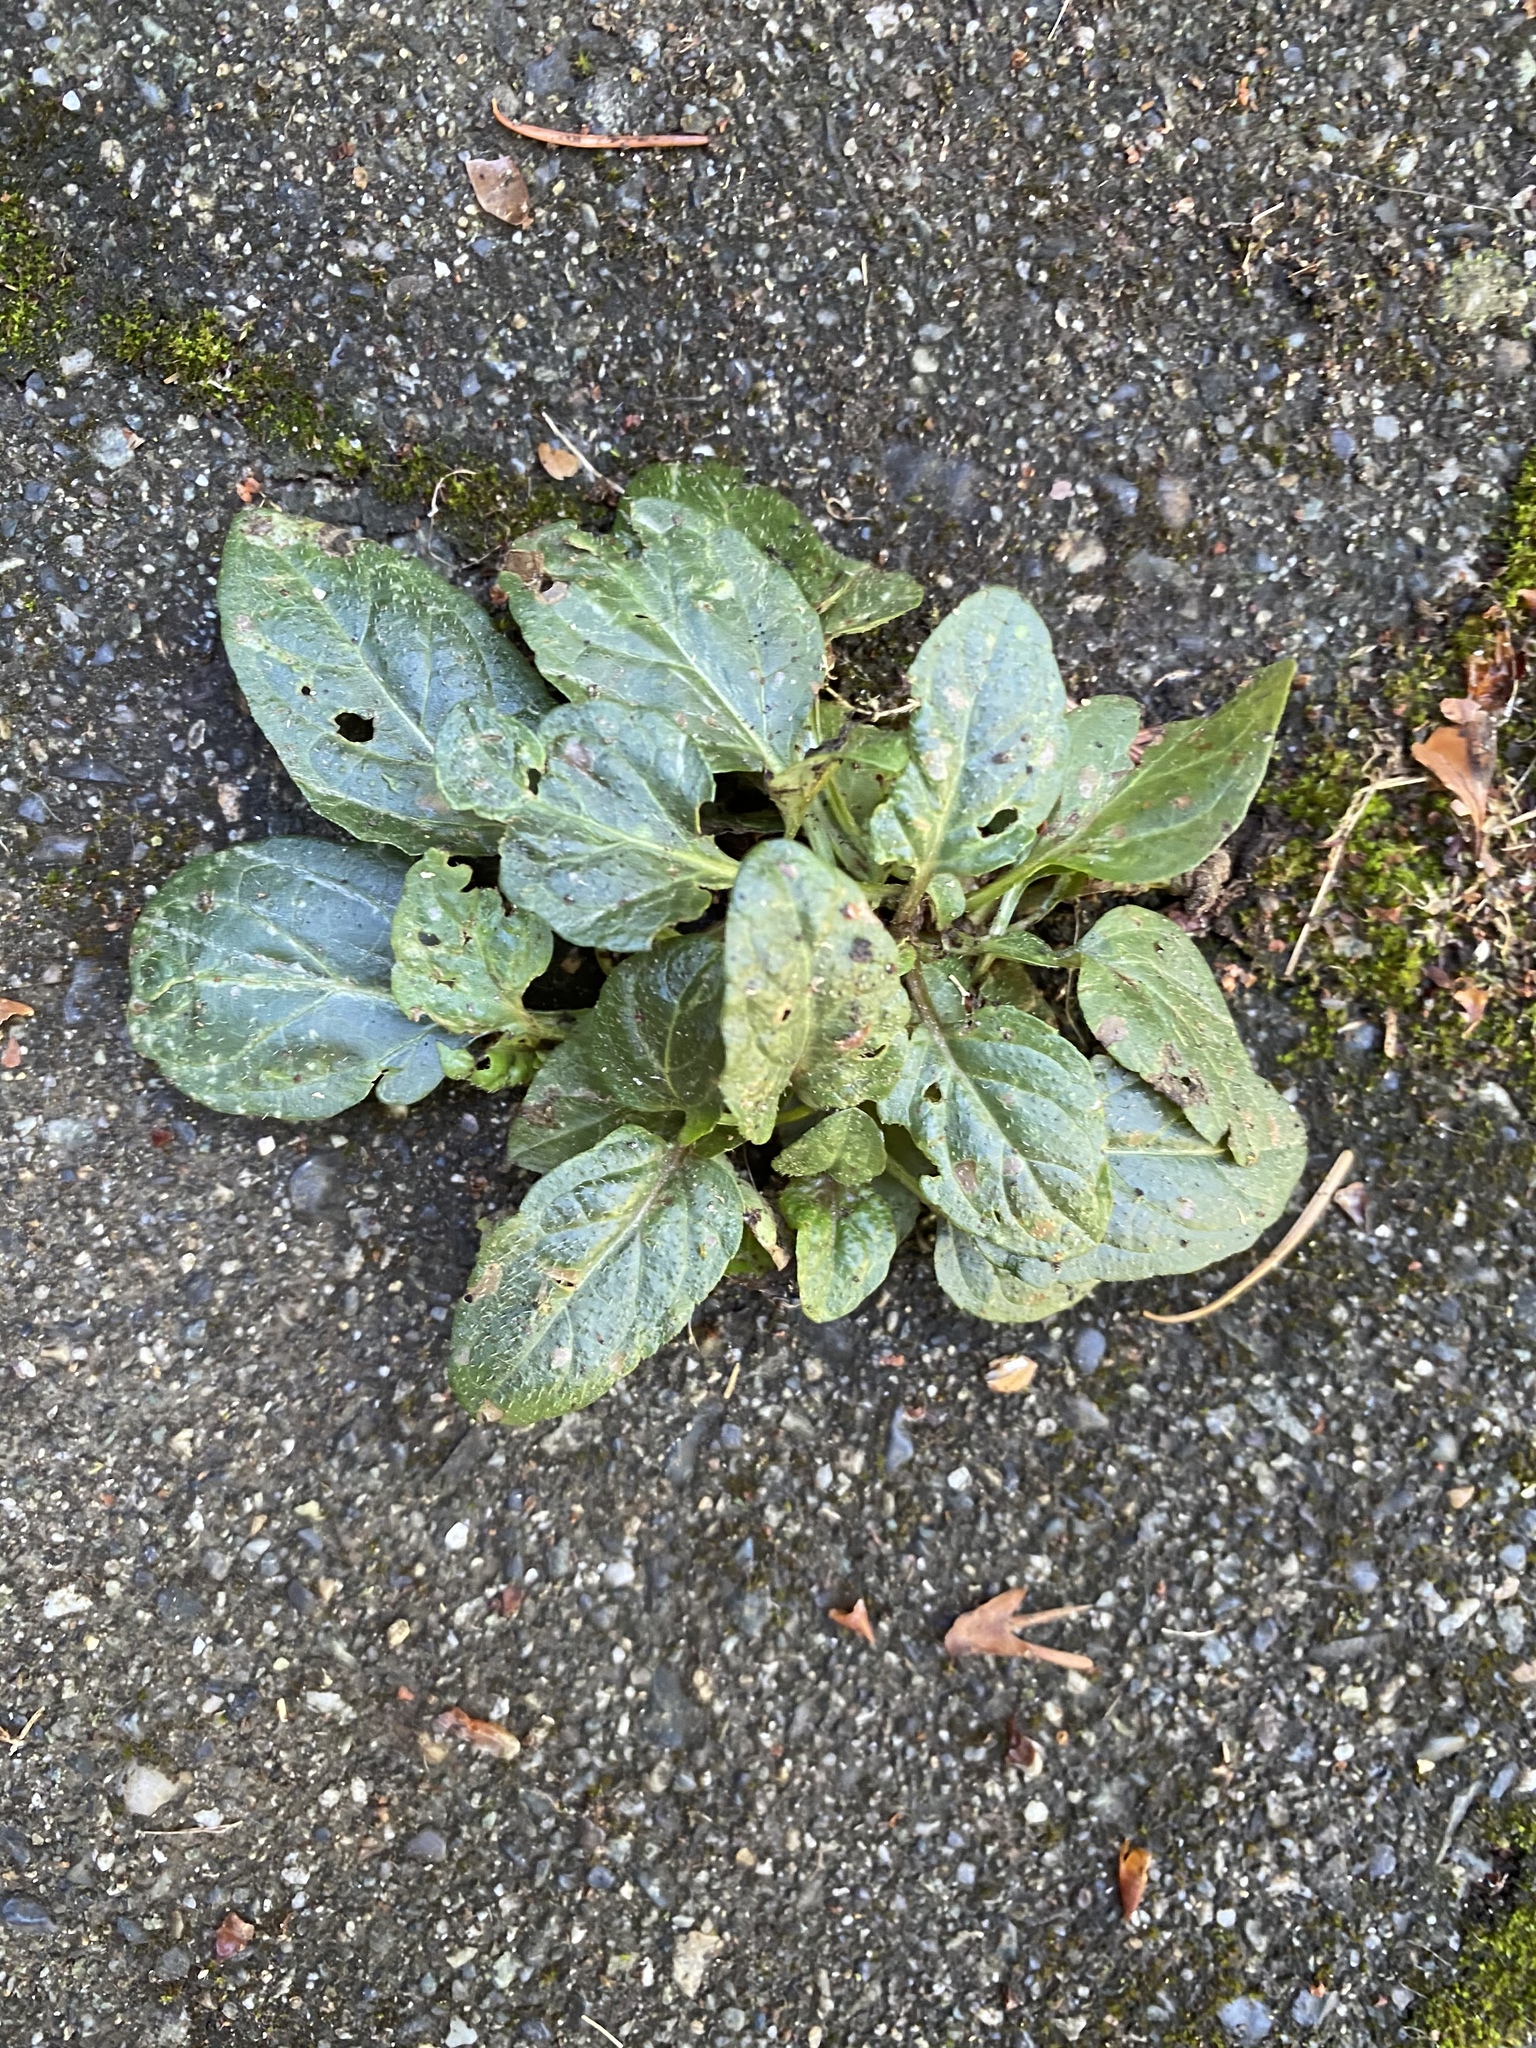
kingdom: Plantae
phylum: Tracheophyta
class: Magnoliopsida
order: Lamiales
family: Lamiaceae
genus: Prunella
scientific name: Prunella vulgaris
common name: Heal-all
